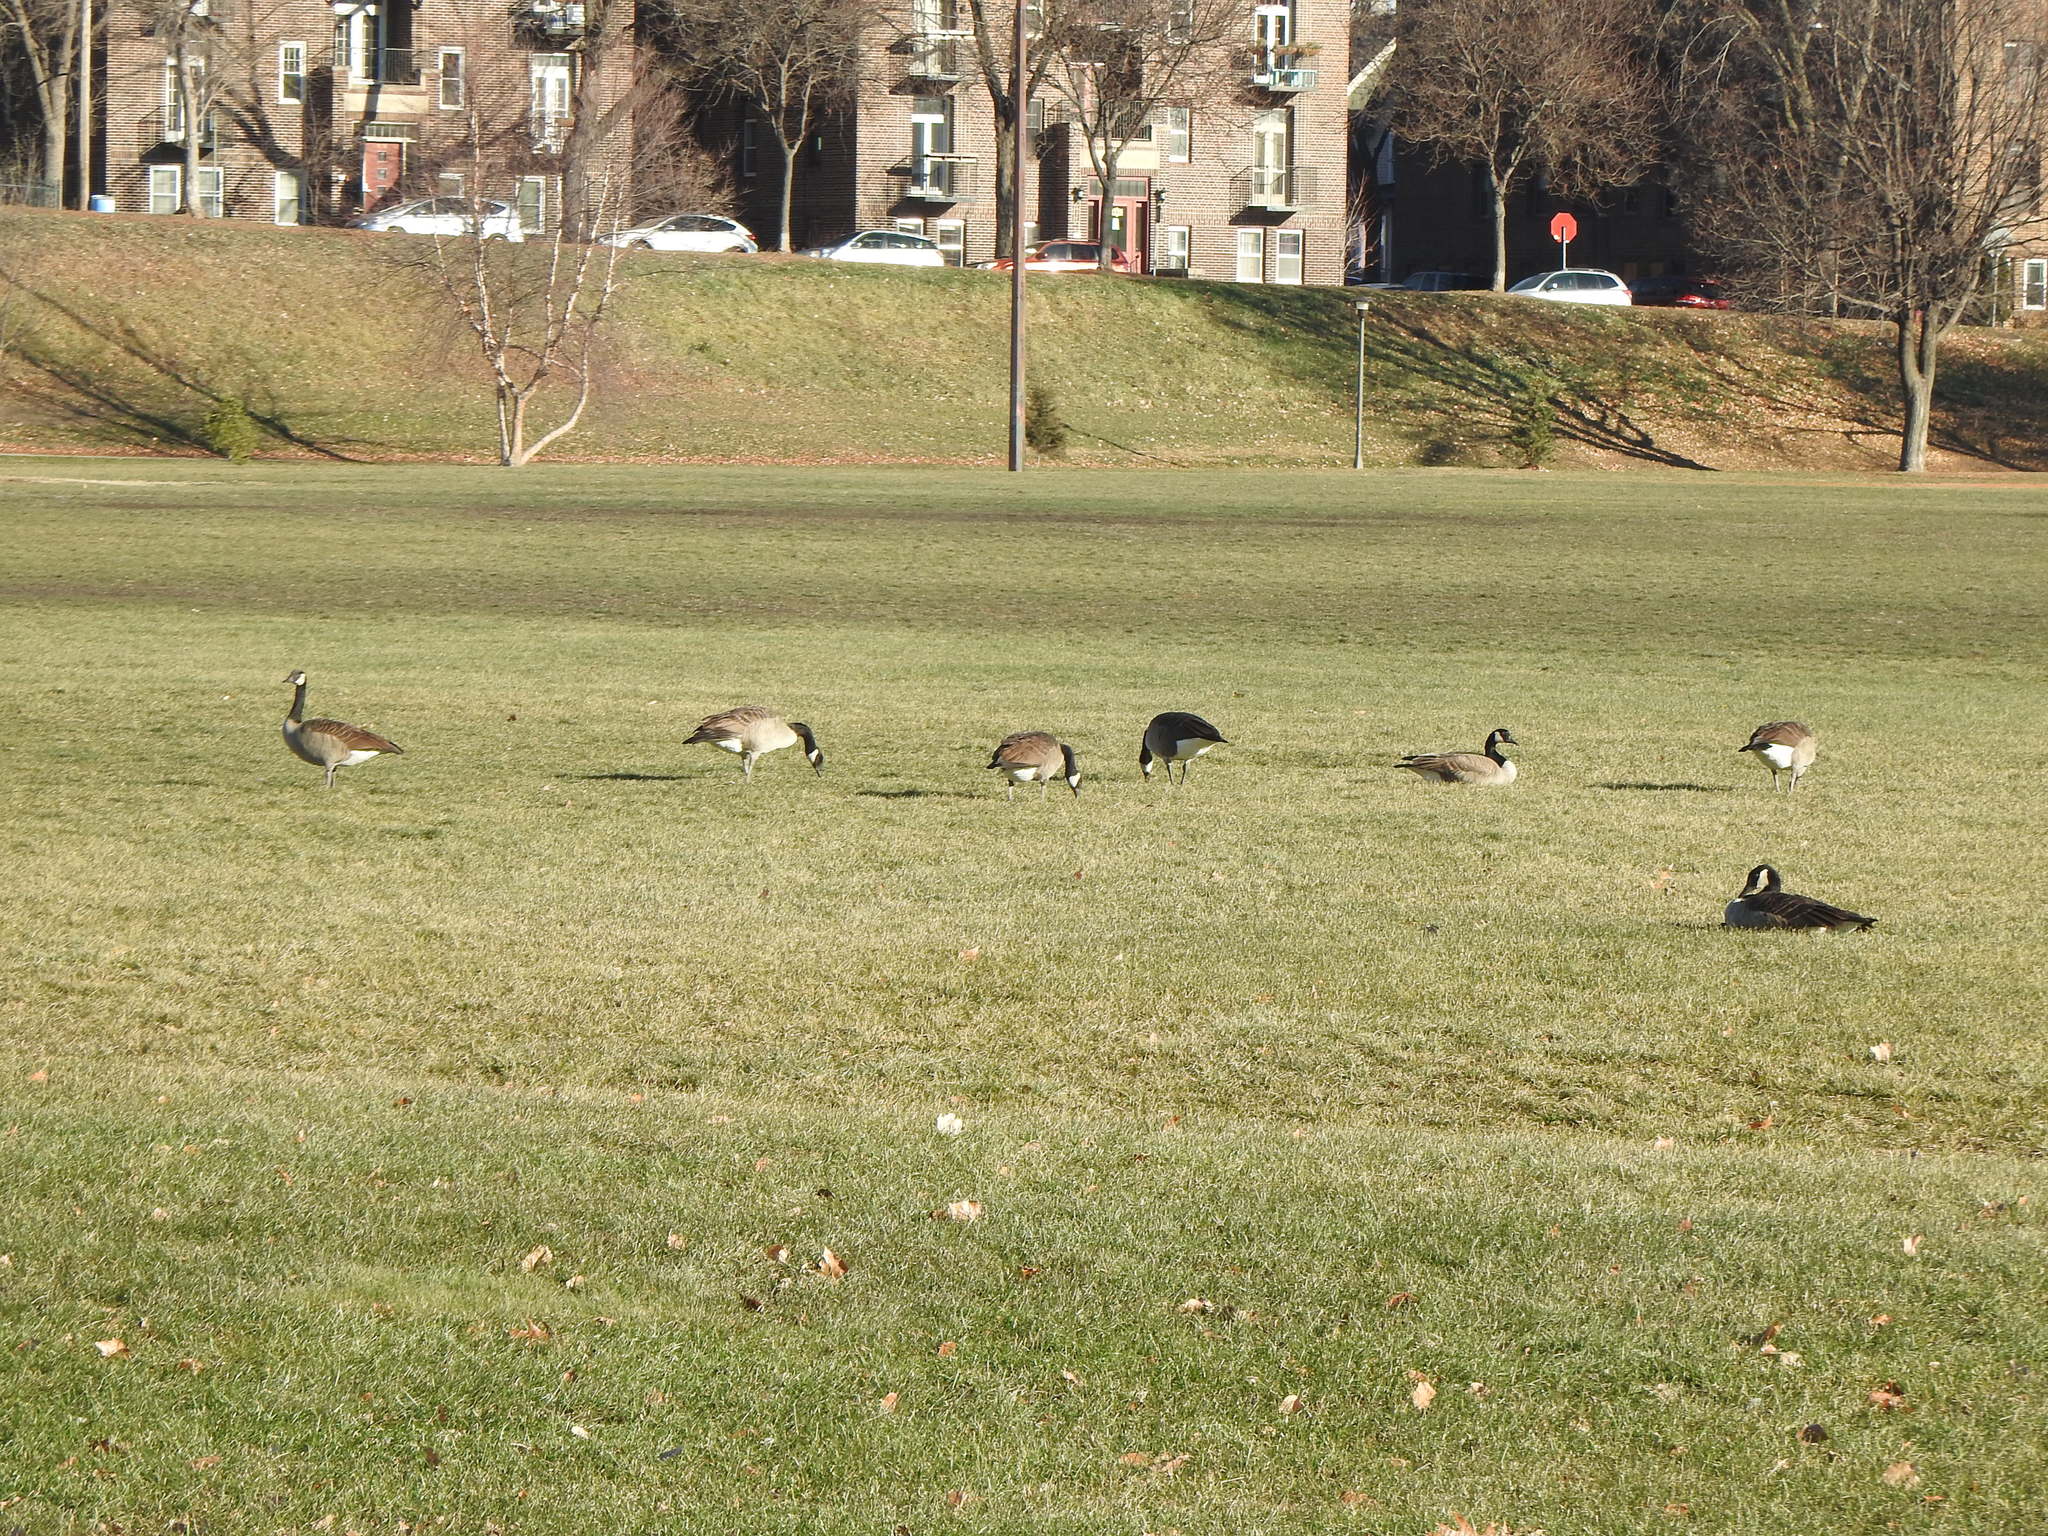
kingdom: Animalia
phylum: Chordata
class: Aves
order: Anseriformes
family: Anatidae
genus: Branta
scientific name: Branta canadensis
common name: Canada goose
